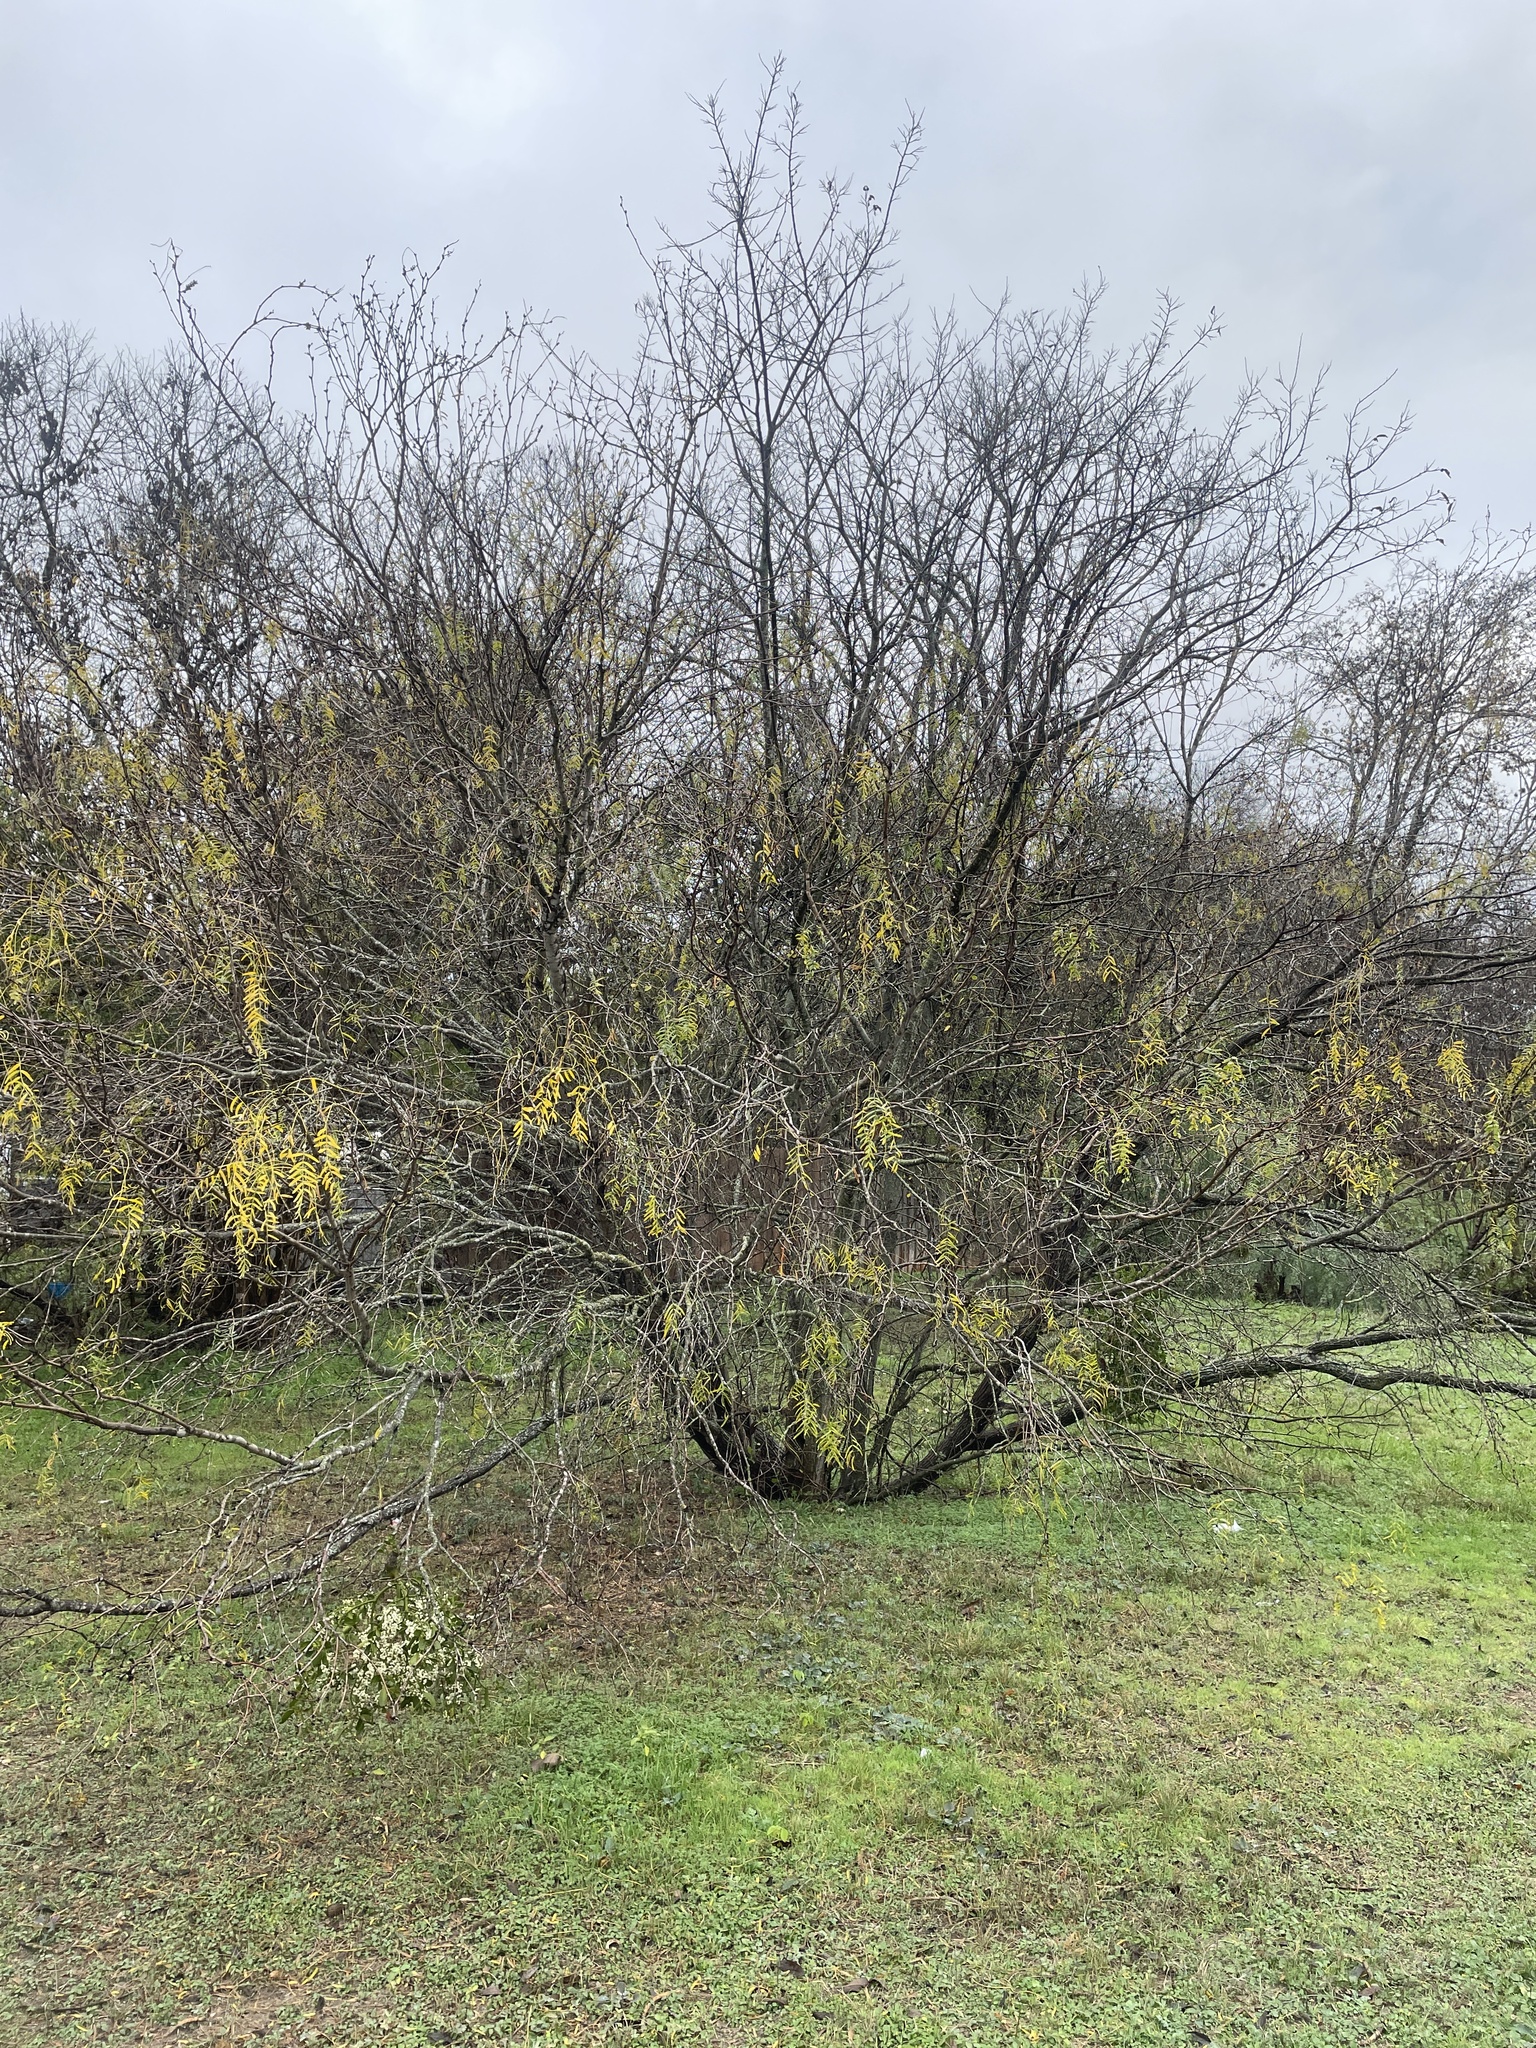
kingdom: Plantae
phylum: Tracheophyta
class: Magnoliopsida
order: Fabales
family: Fabaceae
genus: Prosopis
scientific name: Prosopis glandulosa
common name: Honey mesquite
